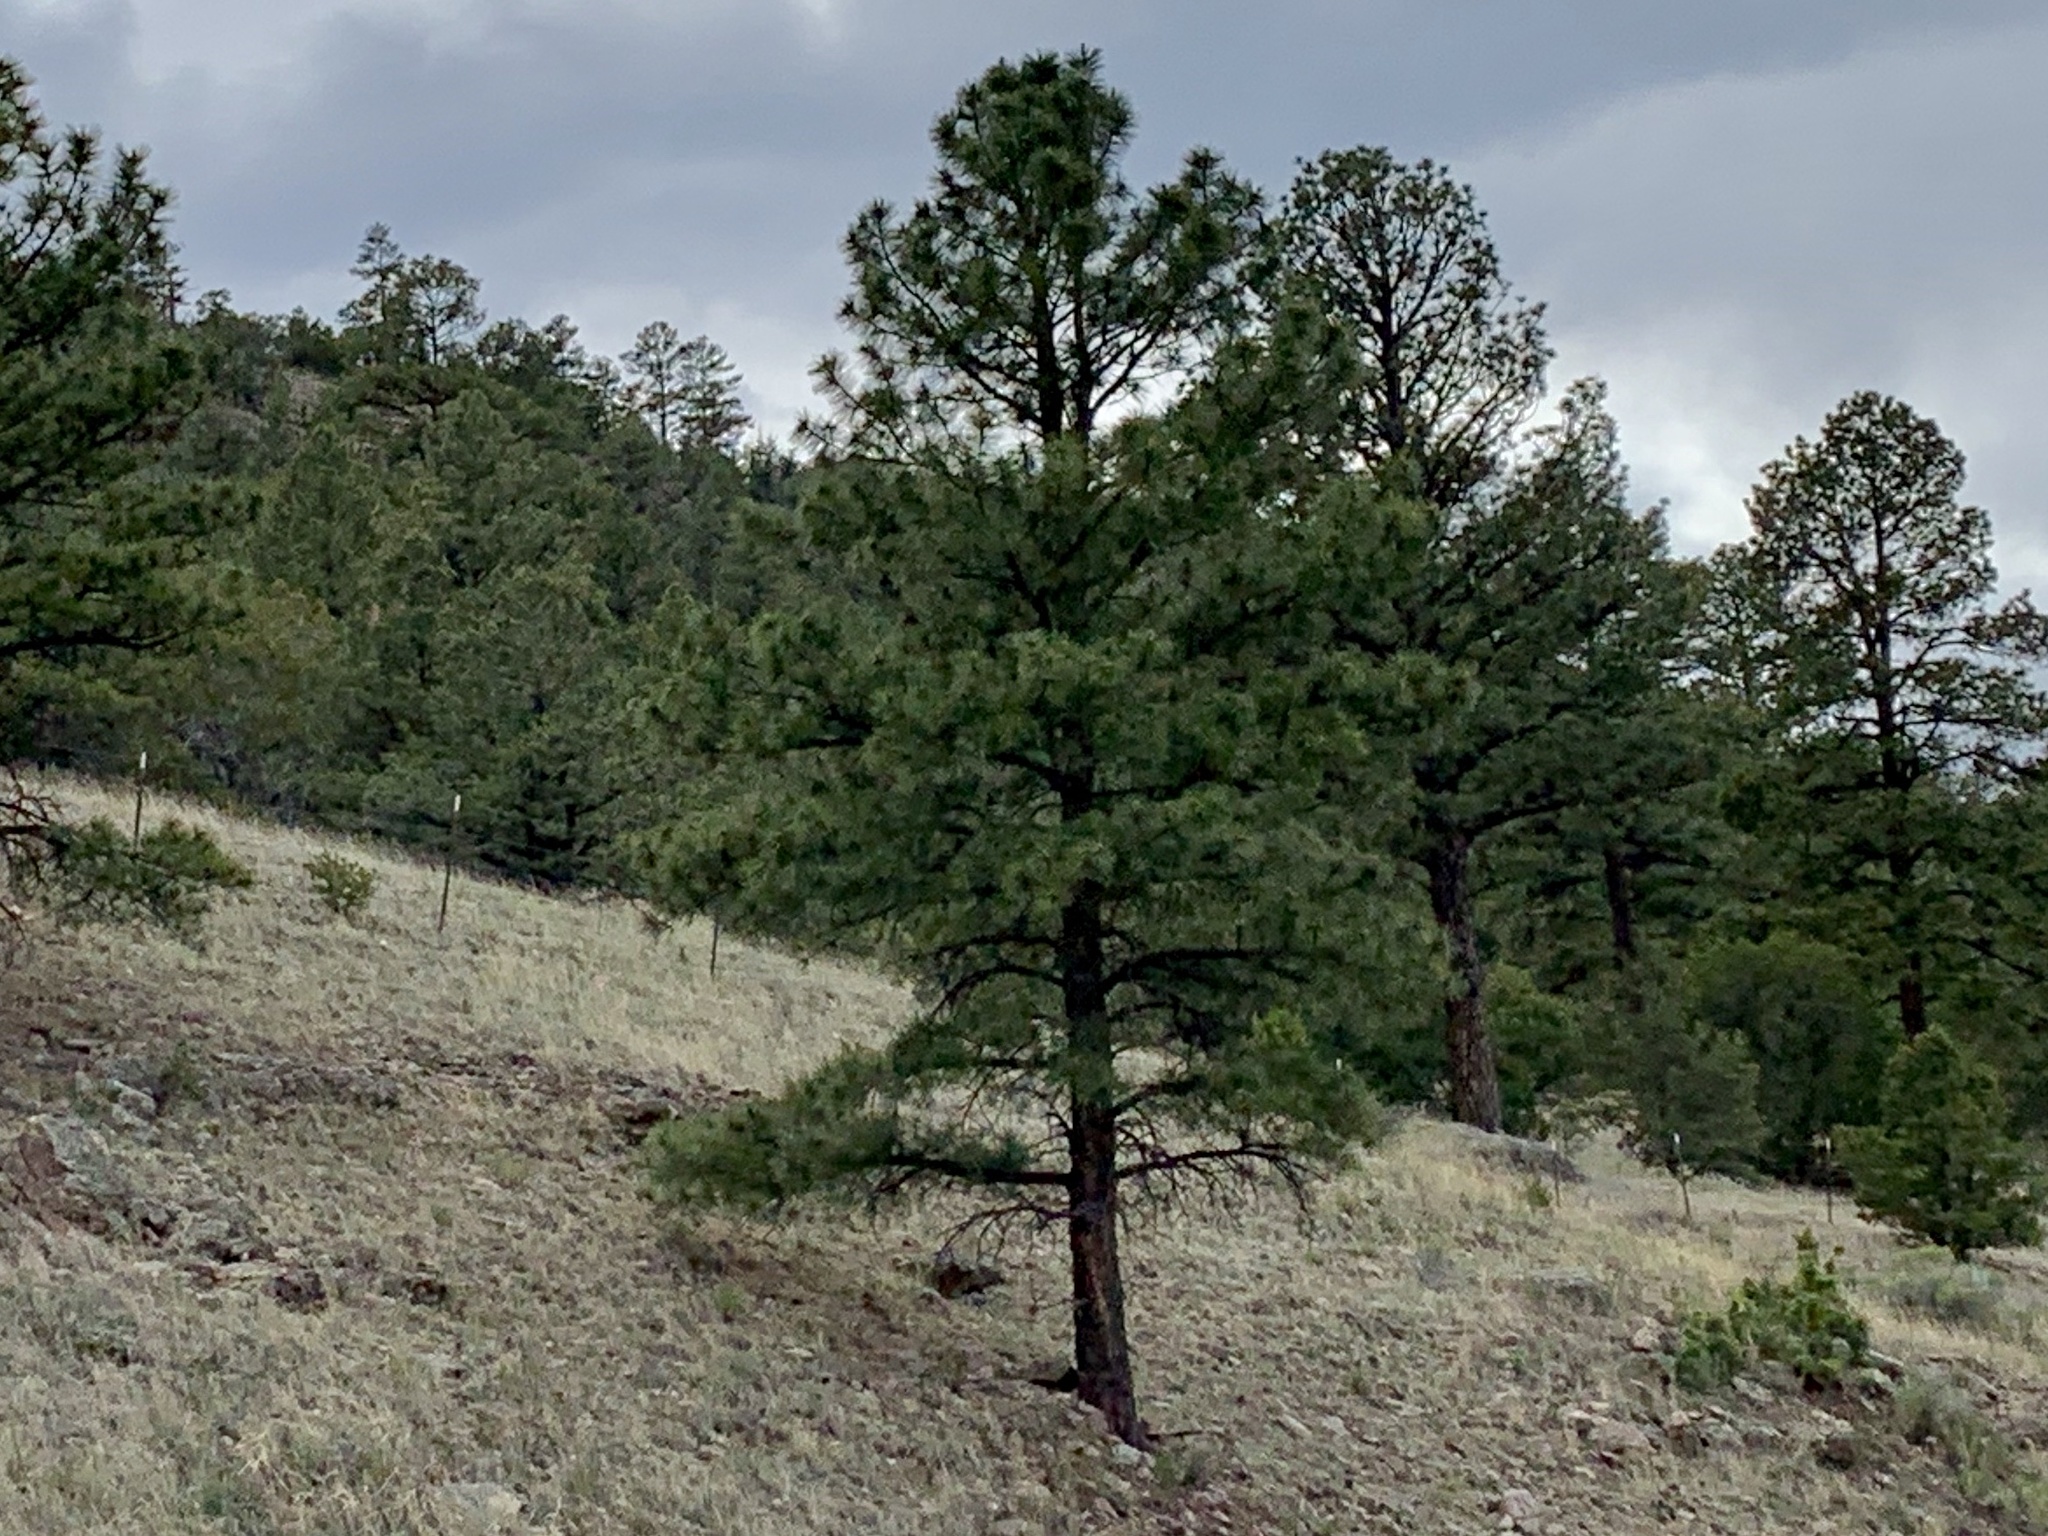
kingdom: Plantae
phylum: Tracheophyta
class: Pinopsida
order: Pinales
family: Pinaceae
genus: Pinus
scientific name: Pinus ponderosa
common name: Western yellow-pine
